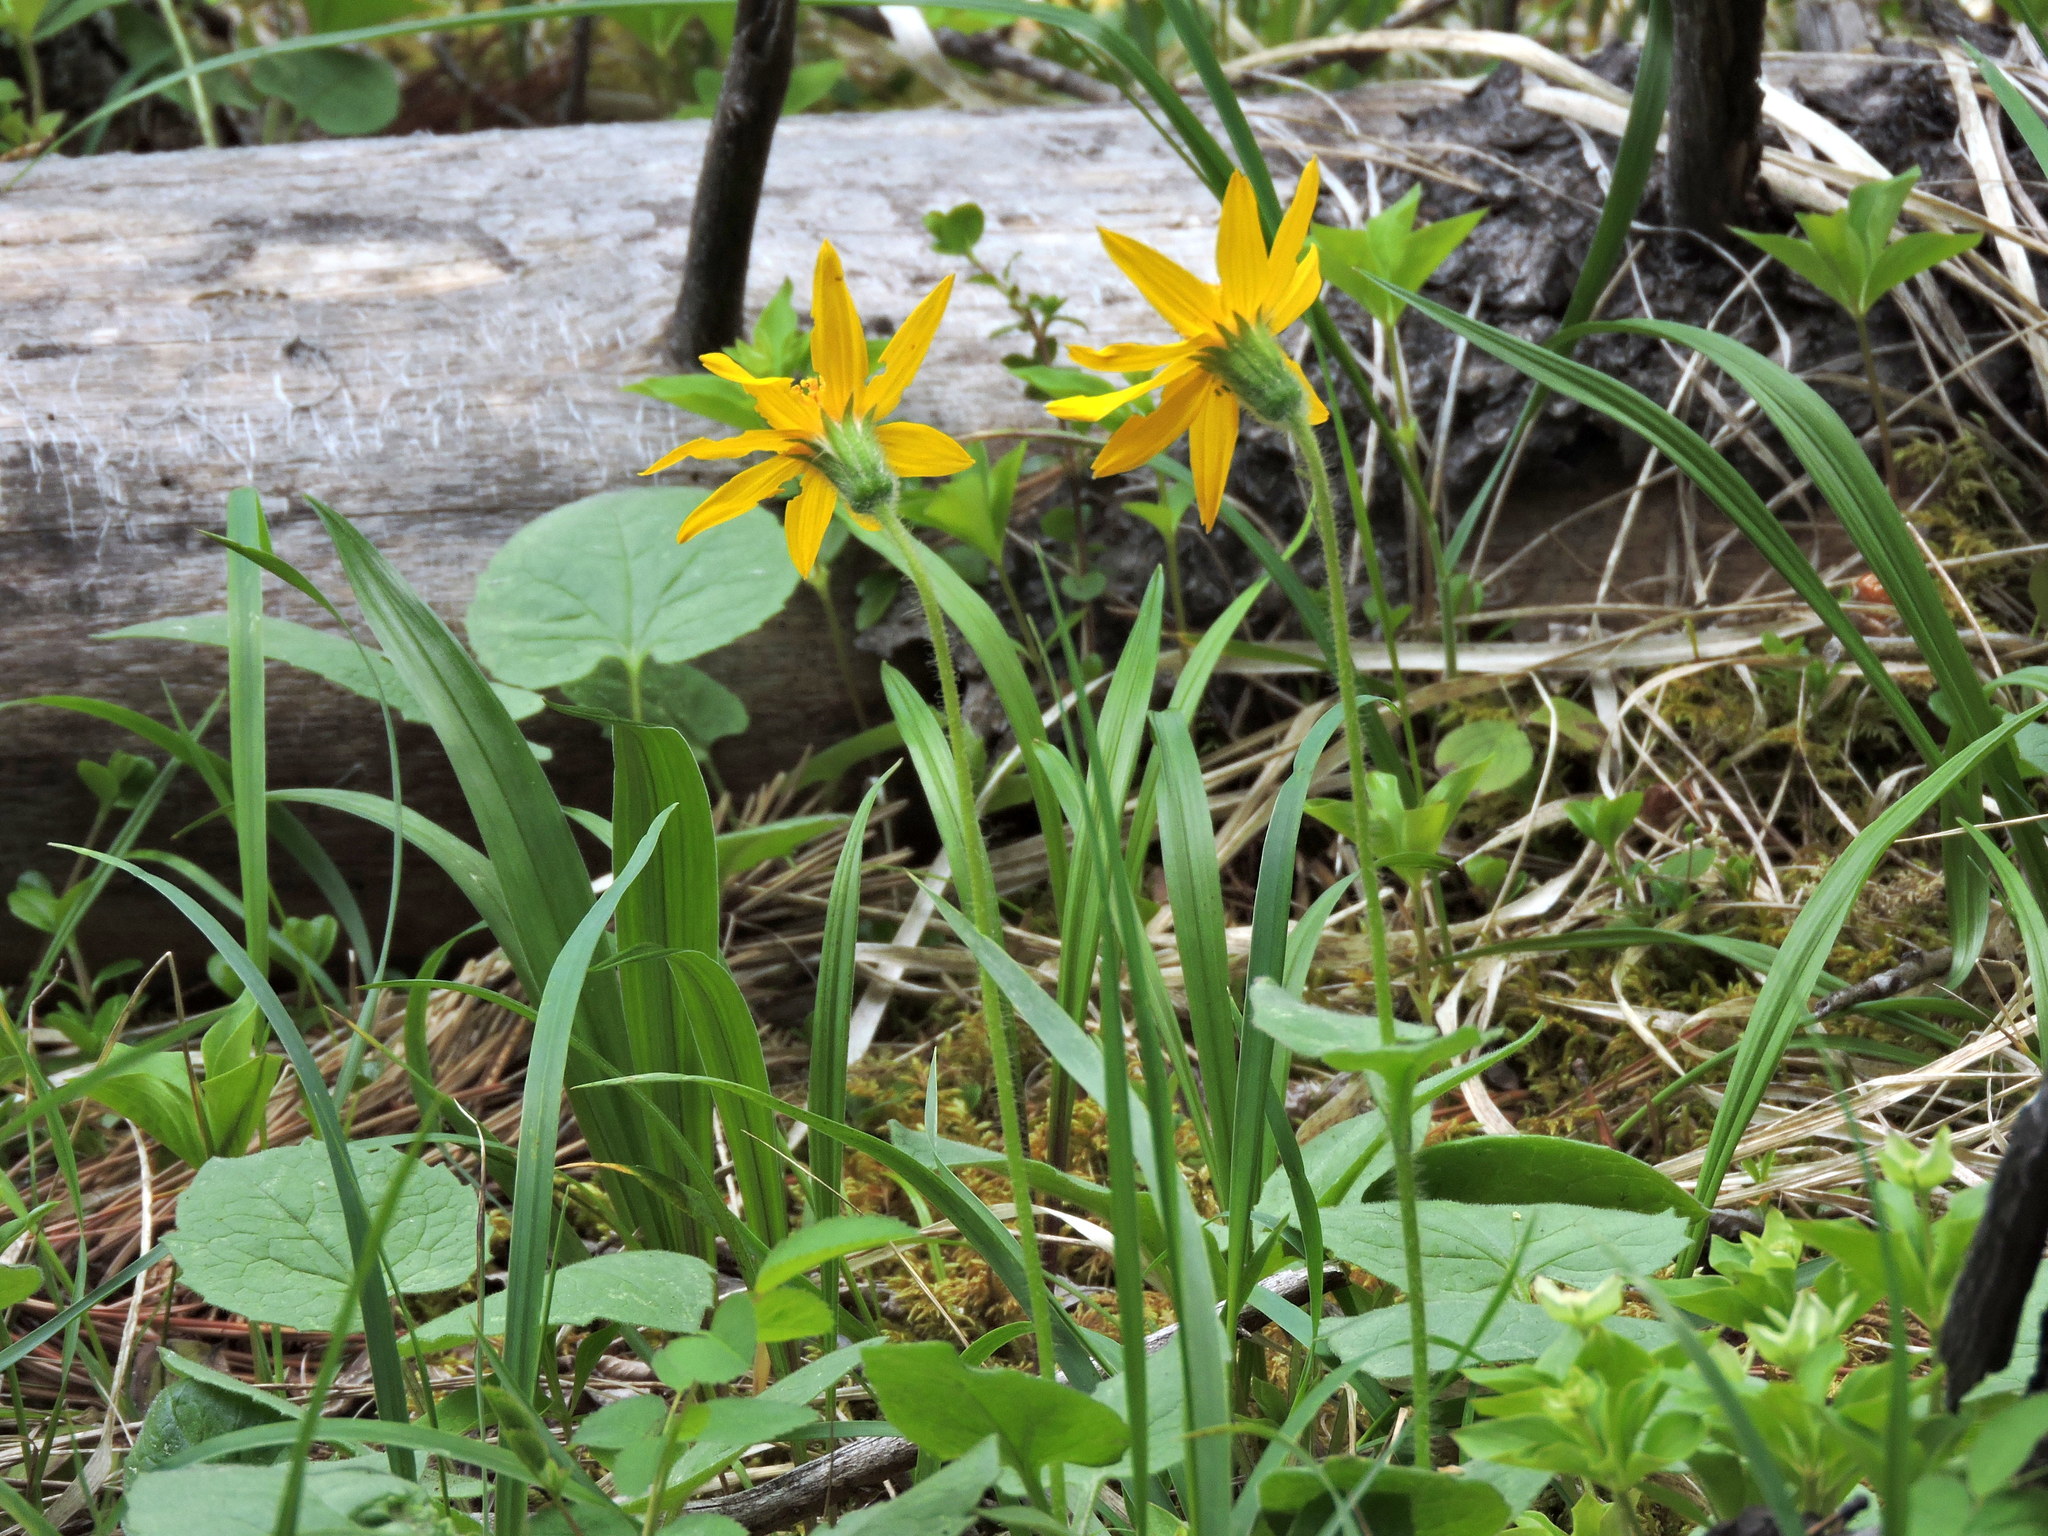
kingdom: Plantae
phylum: Tracheophyta
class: Magnoliopsida
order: Asterales
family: Asteraceae
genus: Arnica
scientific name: Arnica cordifolia
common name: Heart-leaf arnica
